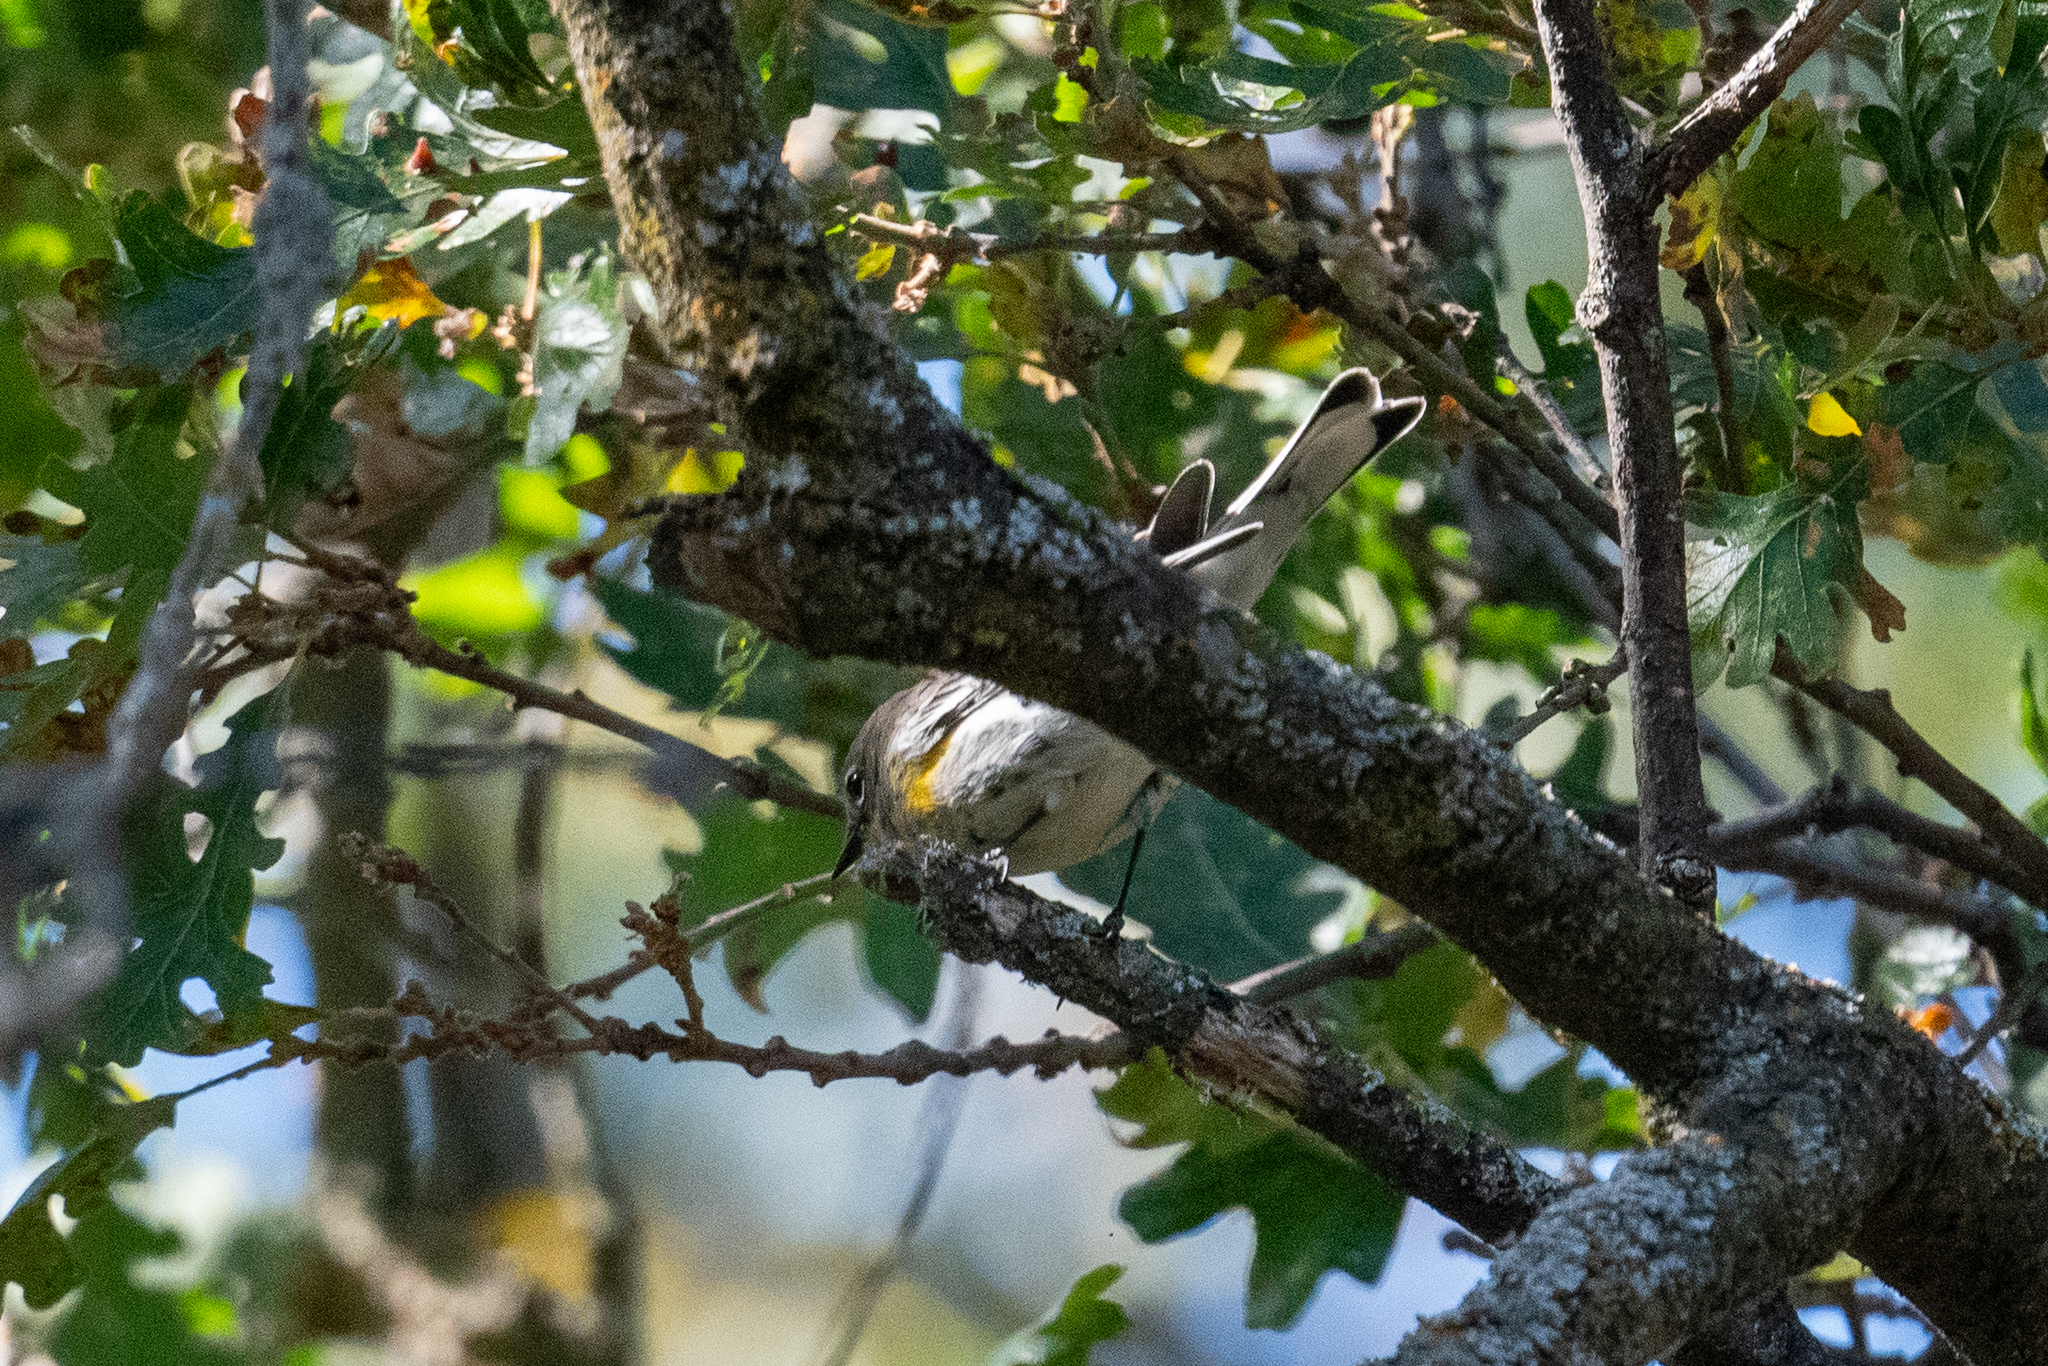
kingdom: Animalia
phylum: Chordata
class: Aves
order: Passeriformes
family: Parulidae
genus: Setophaga
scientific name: Setophaga coronata
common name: Myrtle warbler
